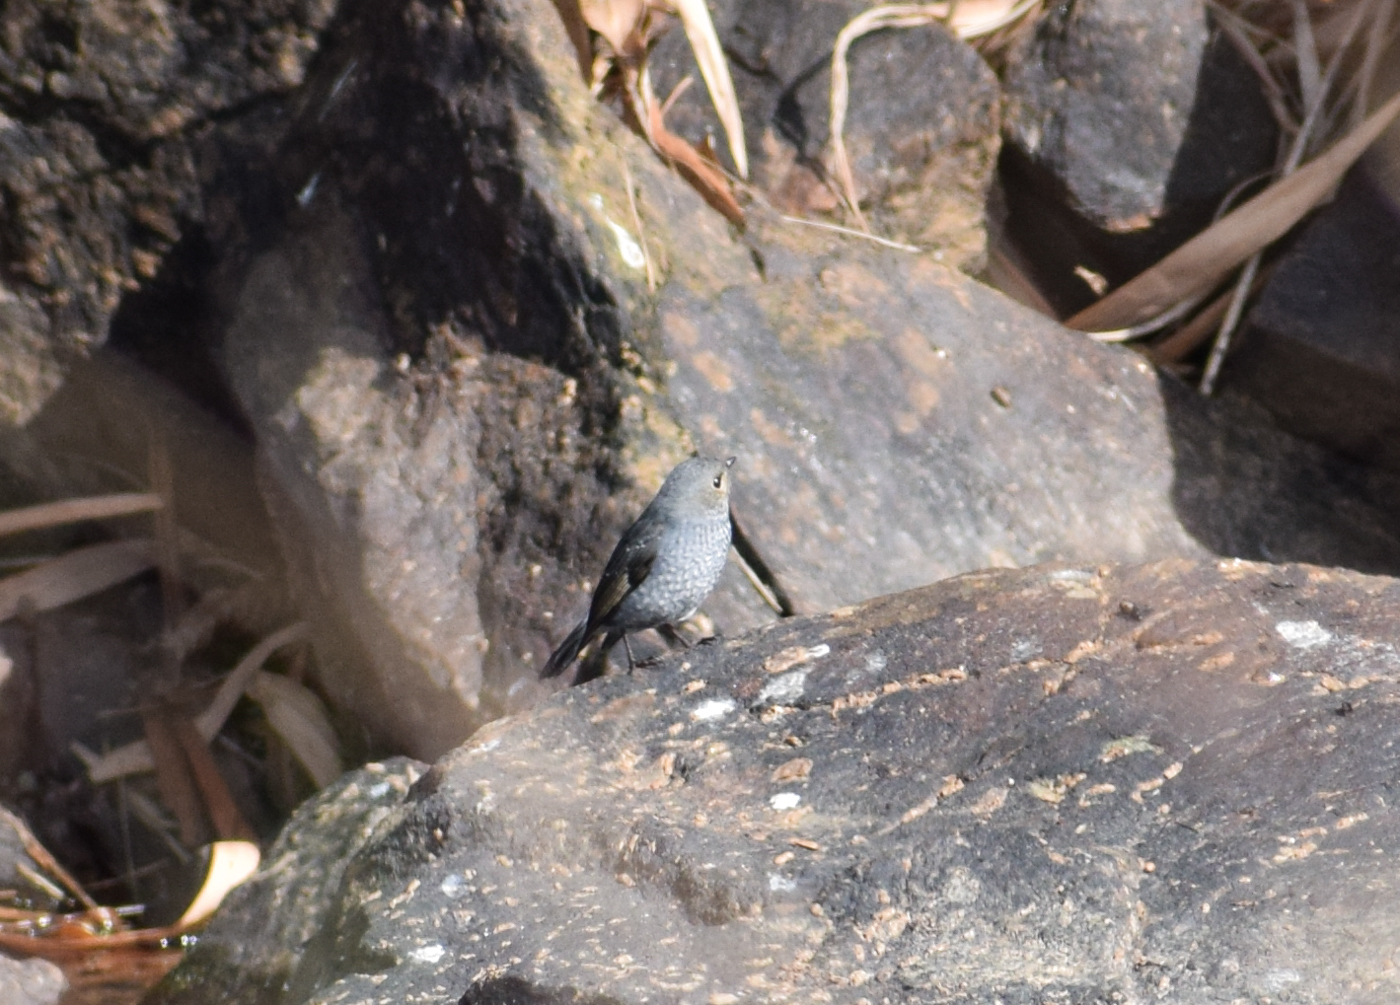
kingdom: Animalia
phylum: Chordata
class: Aves
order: Passeriformes
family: Muscicapidae
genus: Phoenicurus
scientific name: Phoenicurus fuliginosus
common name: Plumbeous water redstart
